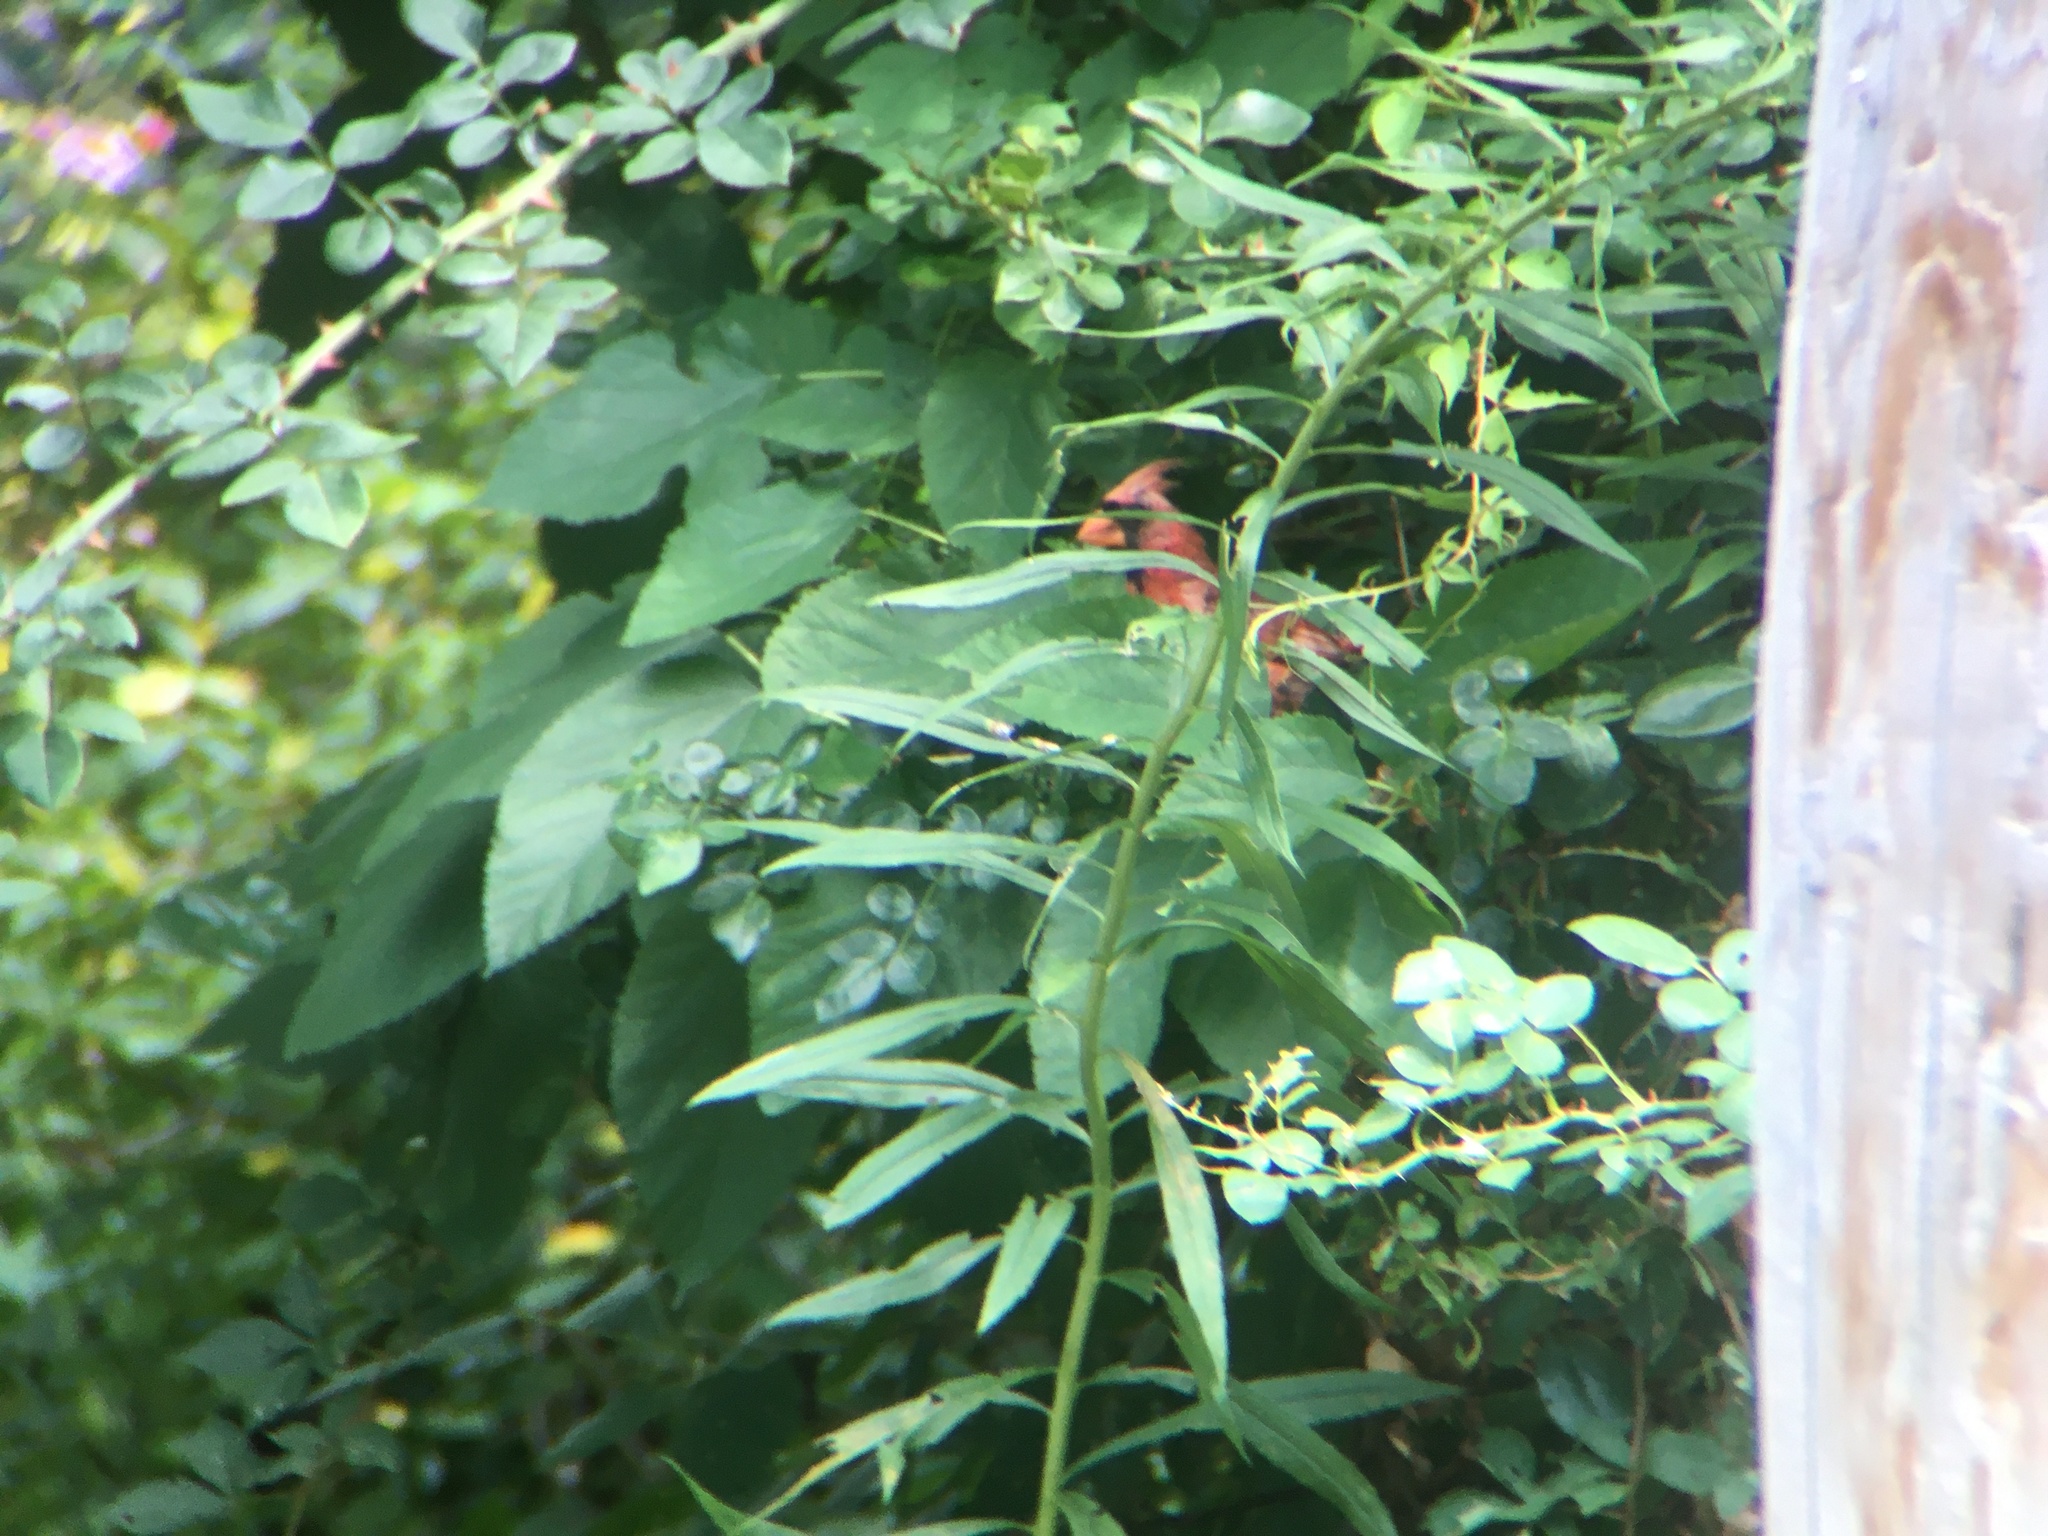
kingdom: Animalia
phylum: Chordata
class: Aves
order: Passeriformes
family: Cardinalidae
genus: Cardinalis
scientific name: Cardinalis cardinalis
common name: Northern cardinal
